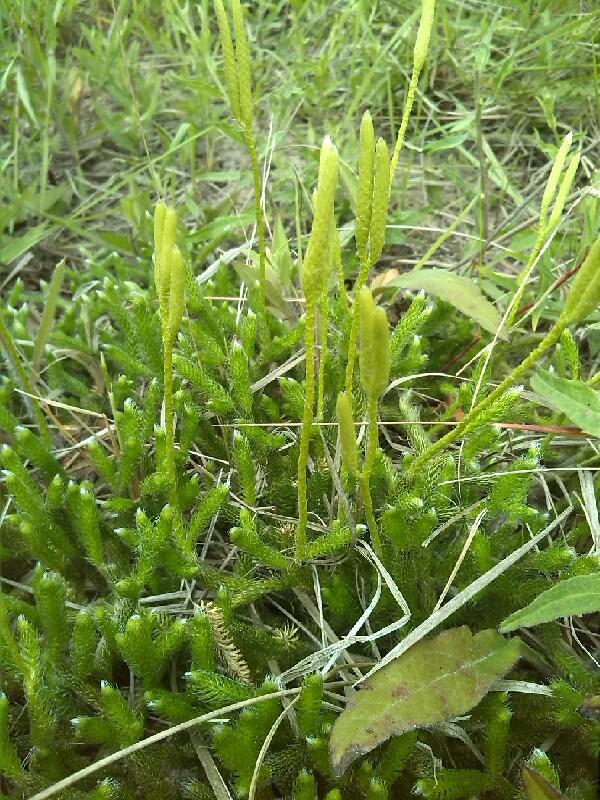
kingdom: Plantae
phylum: Tracheophyta
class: Lycopodiopsida
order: Lycopodiales
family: Lycopodiaceae
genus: Lycopodium
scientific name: Lycopodium clavatum
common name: Stag's-horn clubmoss
